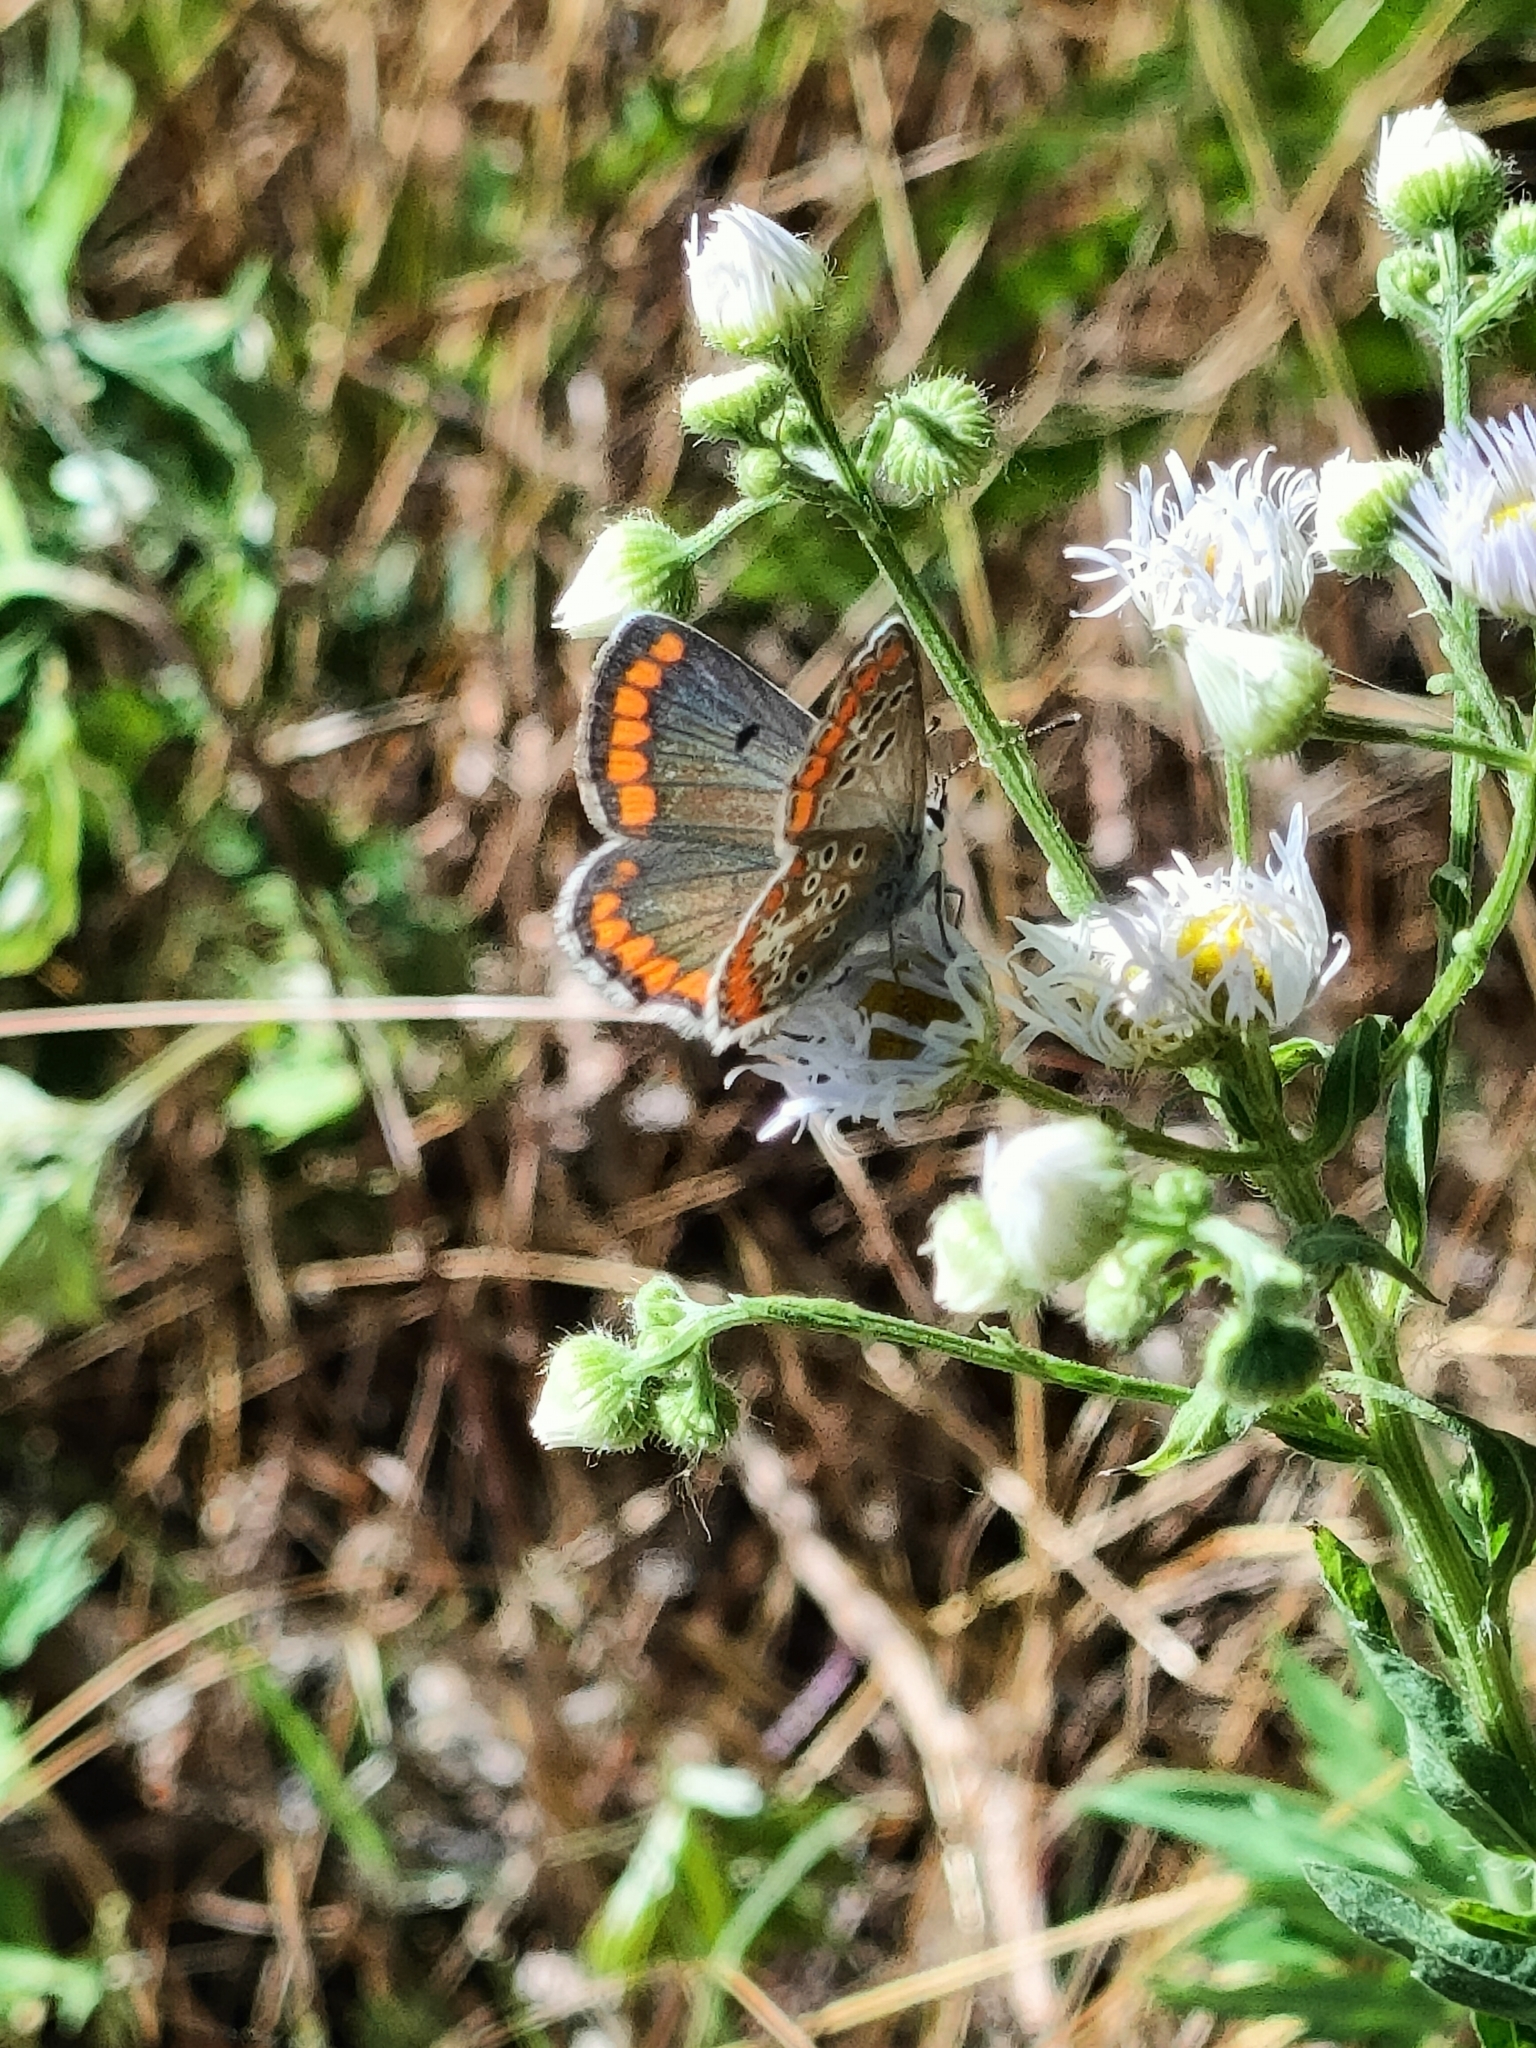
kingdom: Animalia
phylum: Arthropoda
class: Insecta
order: Lepidoptera
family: Lycaenidae
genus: Aricia
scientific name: Aricia agestis
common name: Brown argus
